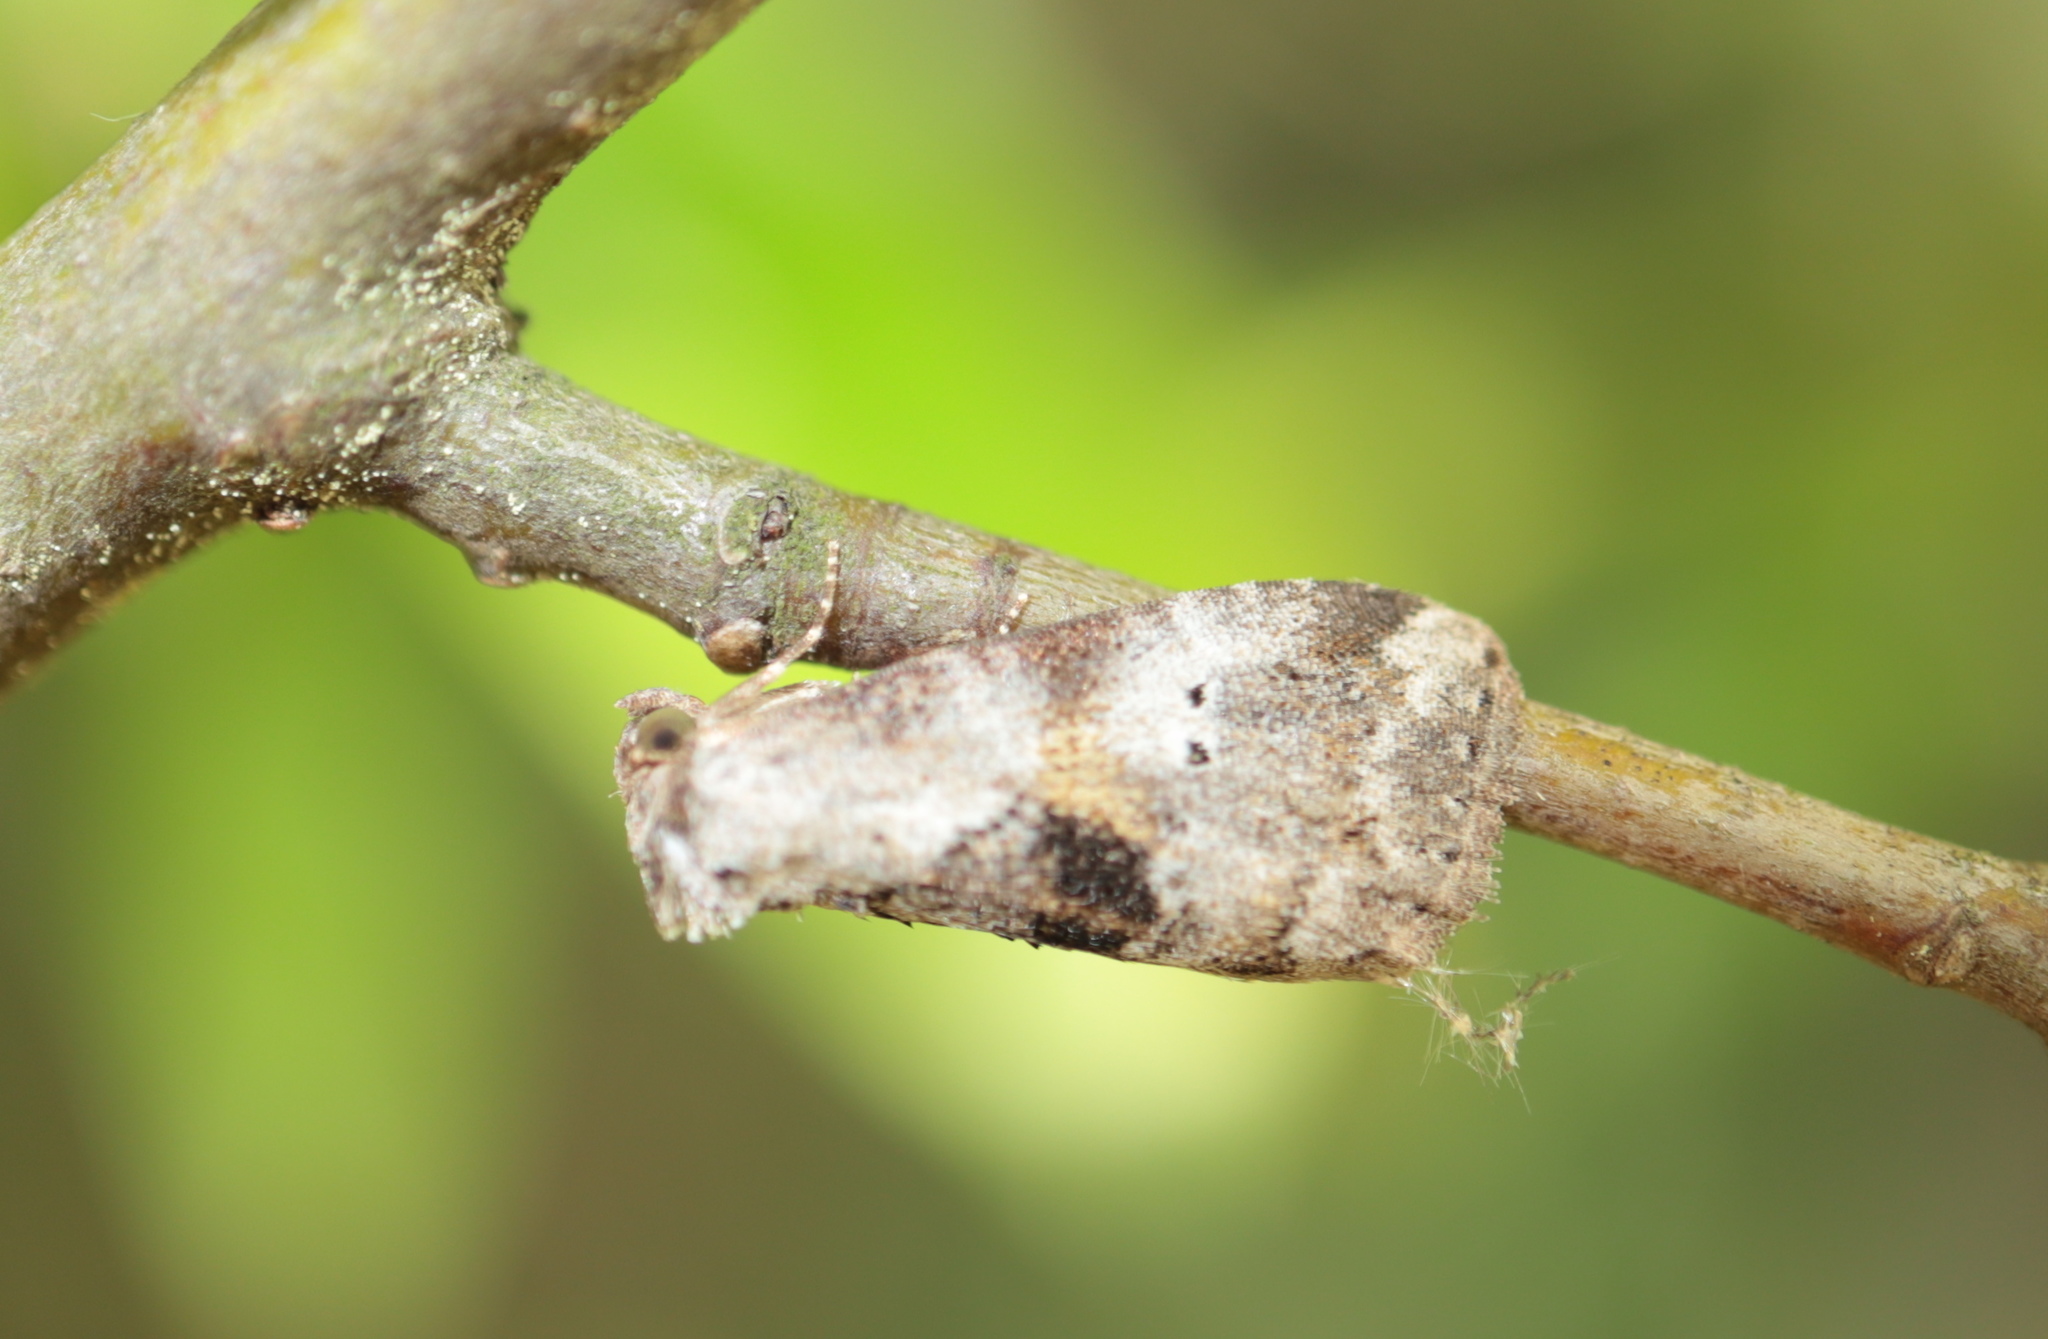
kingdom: Animalia
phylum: Arthropoda
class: Insecta
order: Lepidoptera
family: Erebidae
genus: Hyperstrotia
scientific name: Hyperstrotia secta
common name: Black-patched graylet
